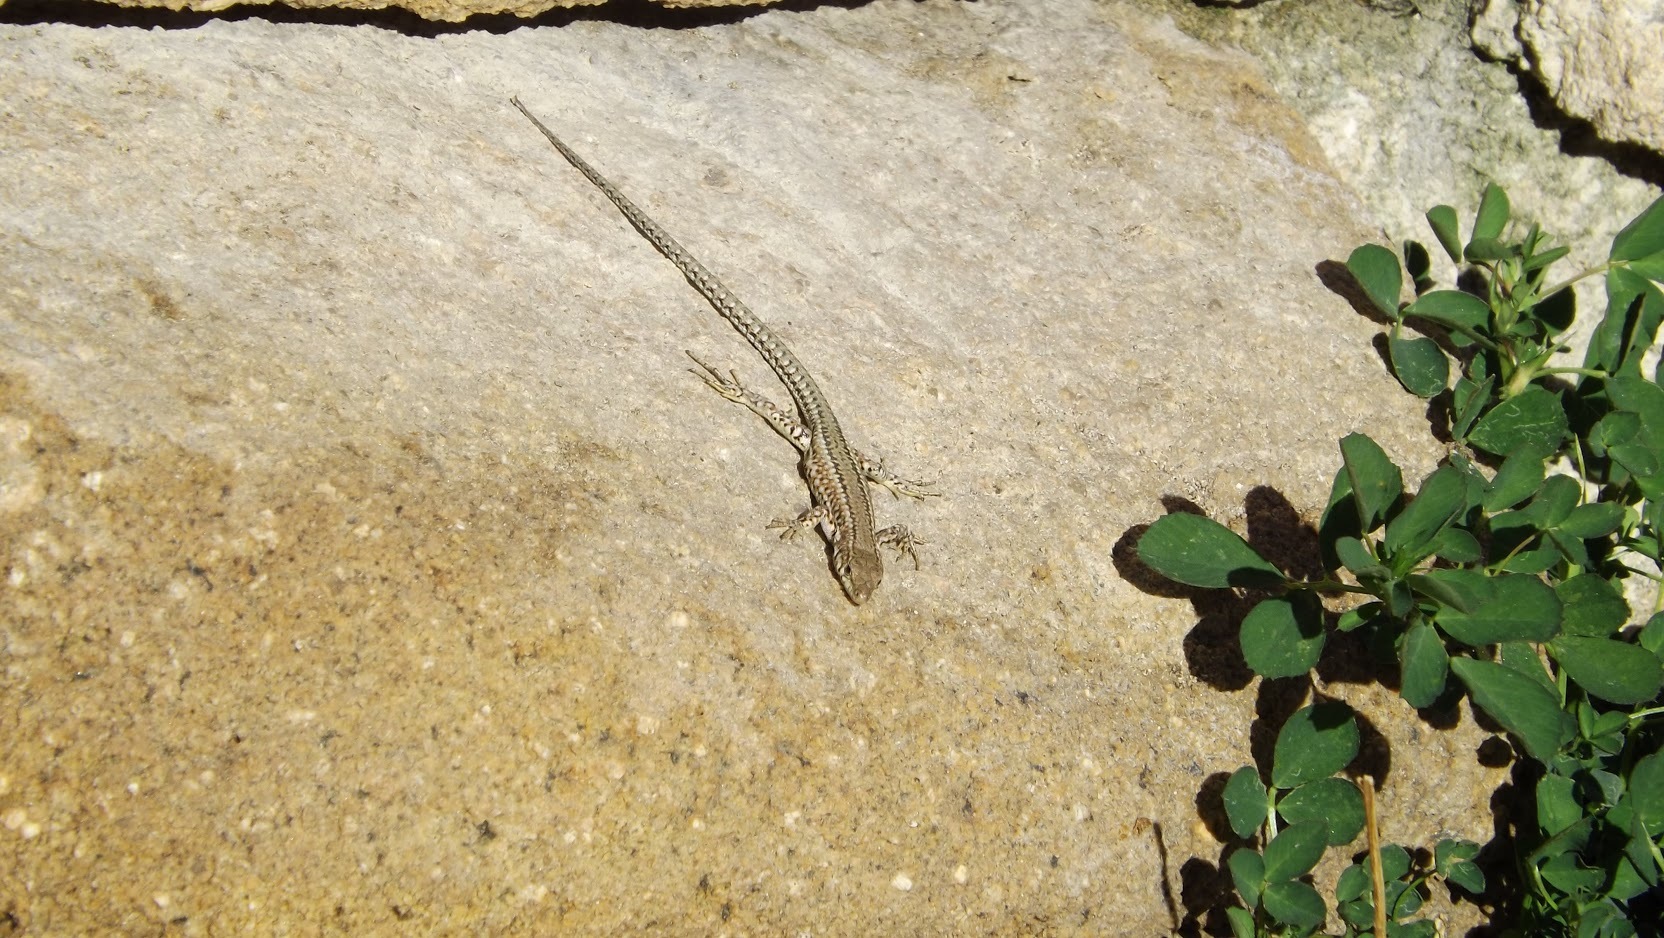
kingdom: Animalia
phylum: Chordata
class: Squamata
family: Lacertidae
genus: Podarcis
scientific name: Podarcis guadarramae
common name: Guadarrama wall lizard
